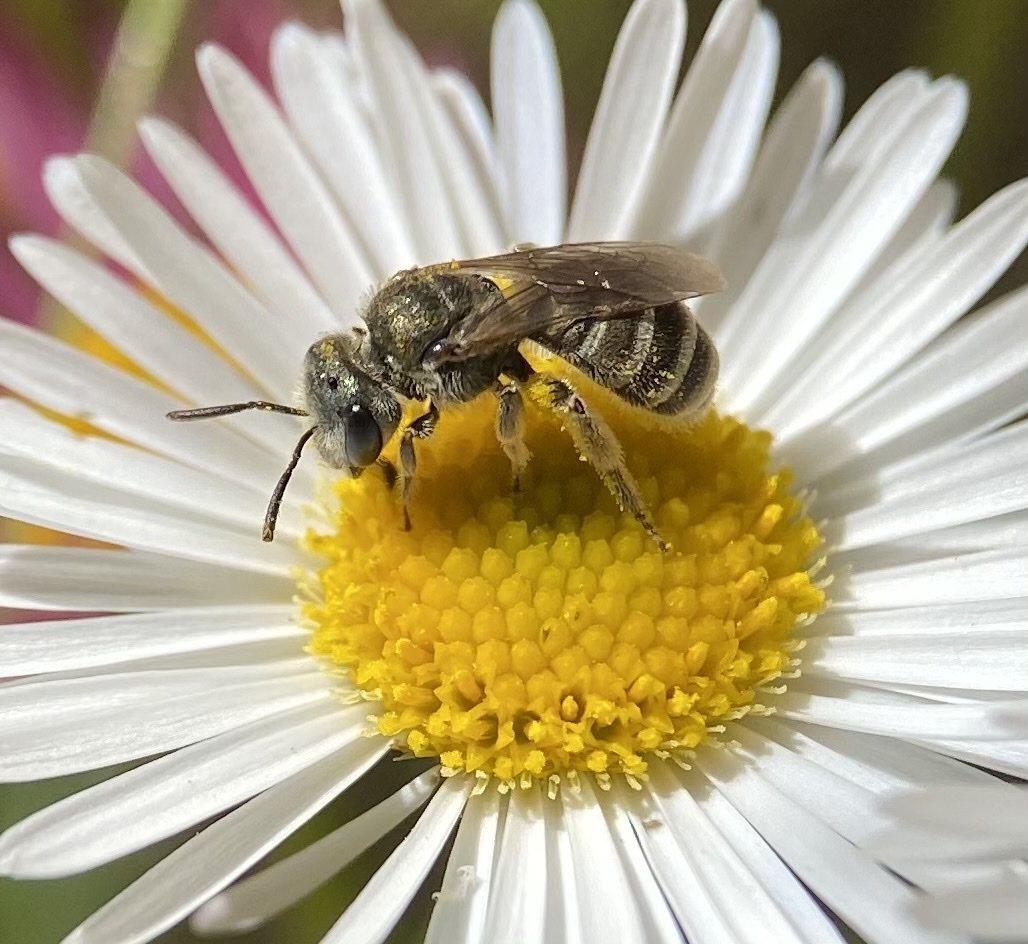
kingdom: Animalia
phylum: Arthropoda
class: Insecta
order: Hymenoptera
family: Halictidae
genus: Halictus
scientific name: Halictus tripartitus
